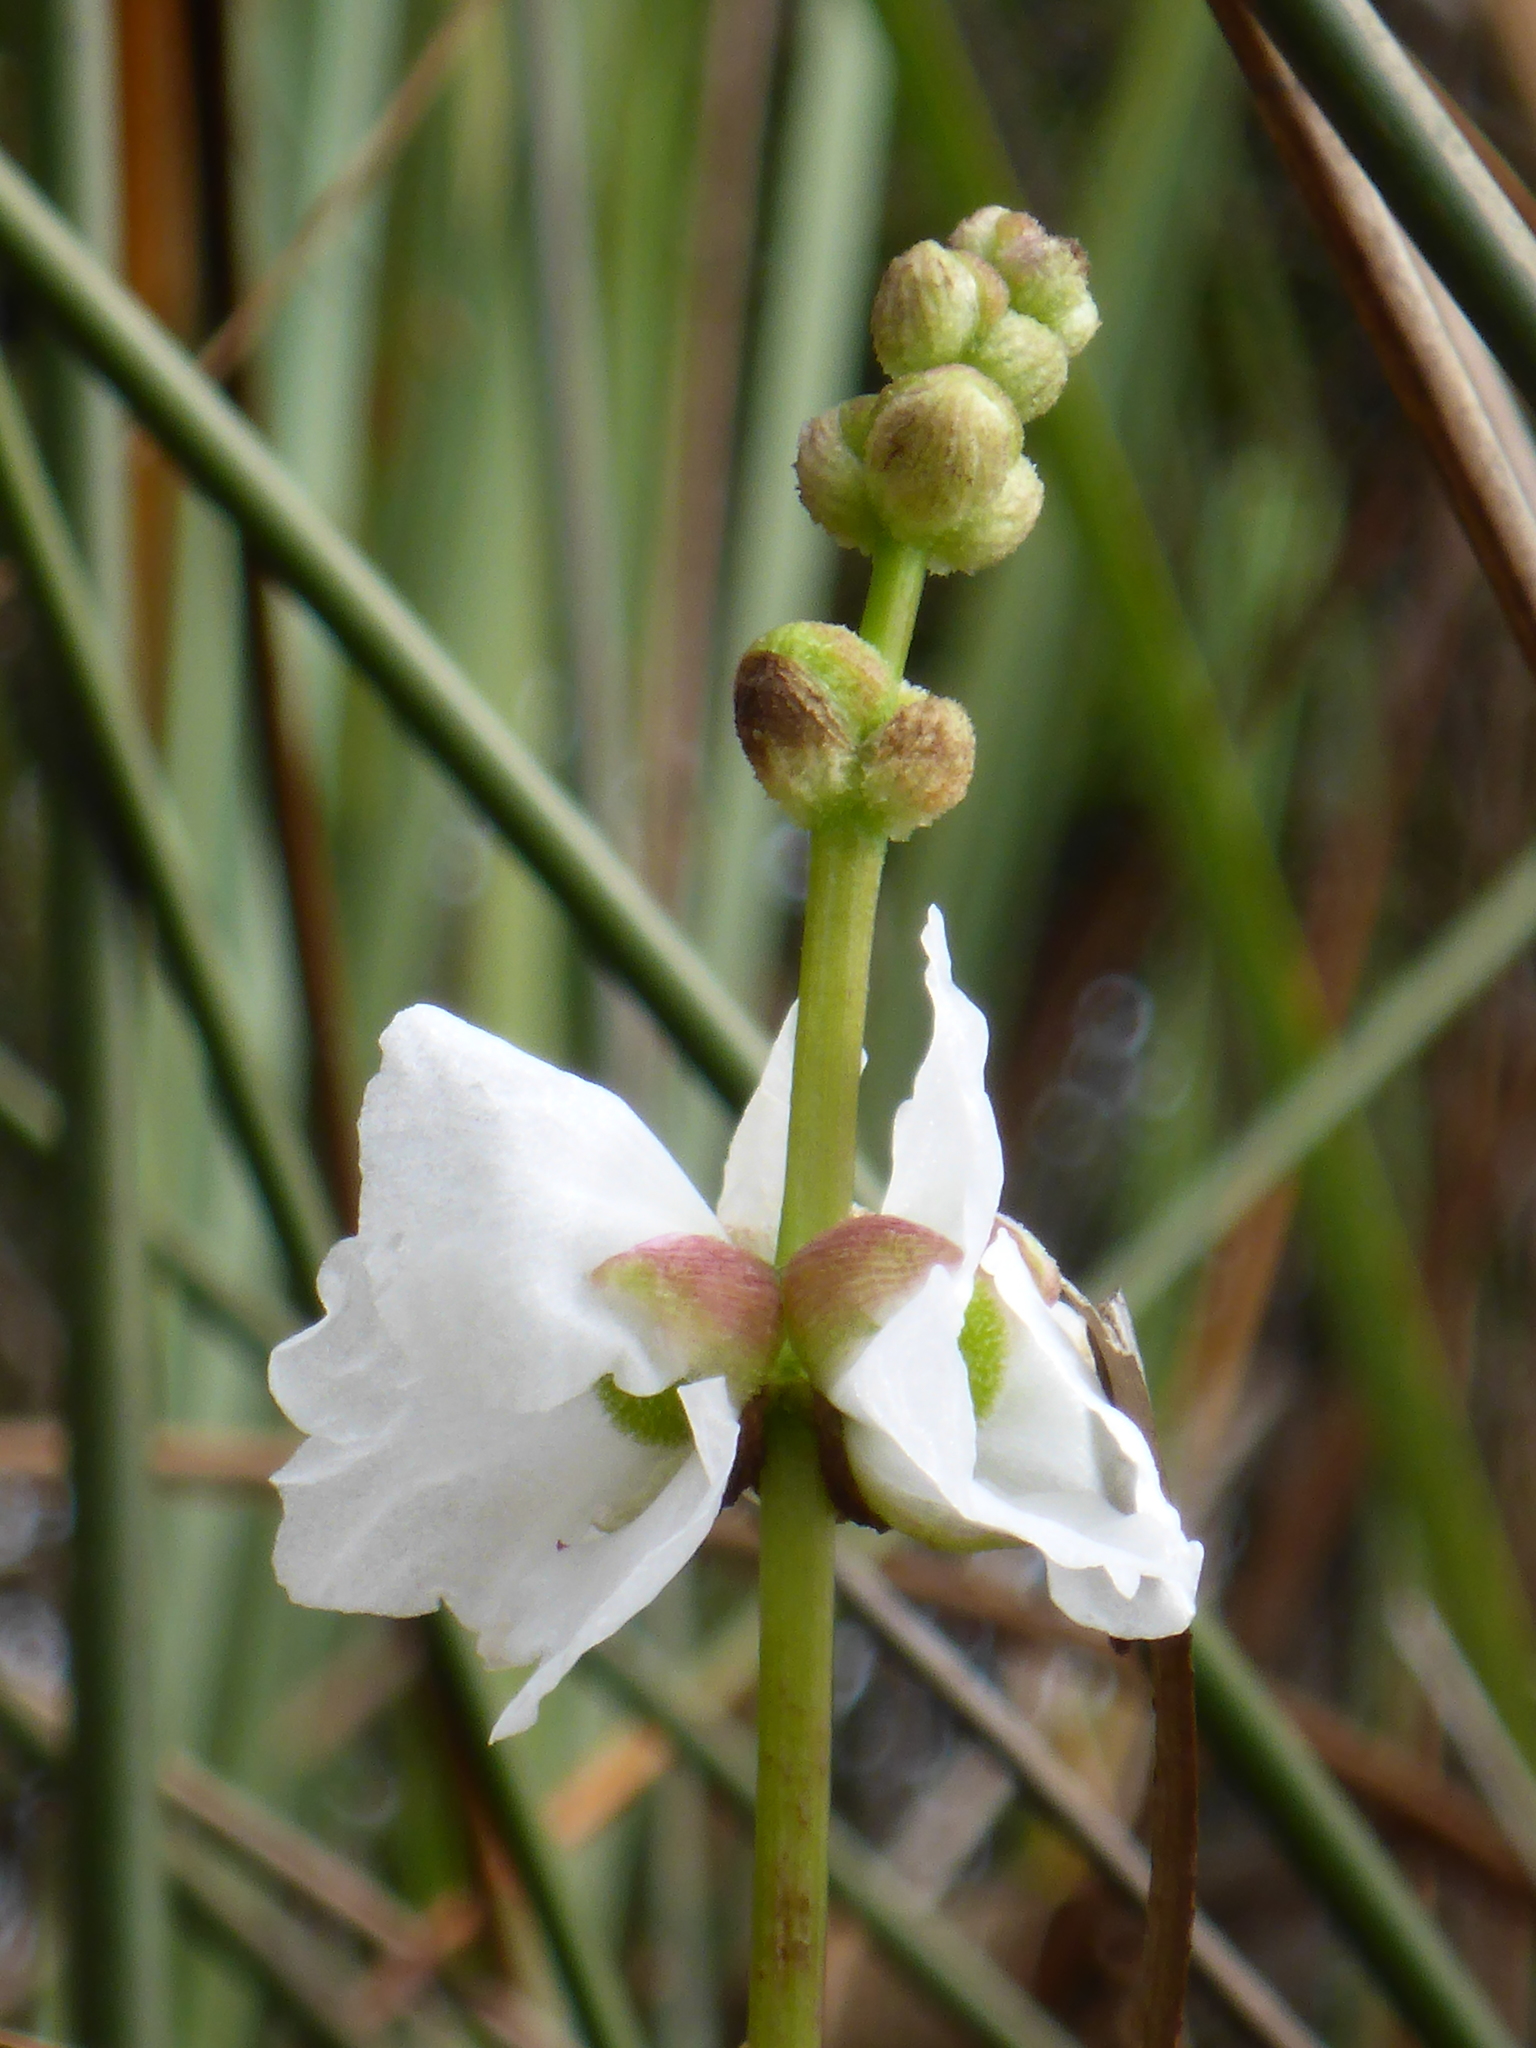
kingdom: Plantae
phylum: Tracheophyta
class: Liliopsida
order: Alismatales
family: Alismataceae
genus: Sagittaria
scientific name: Sagittaria lancifolia
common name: Lance-leaf arrowhead
